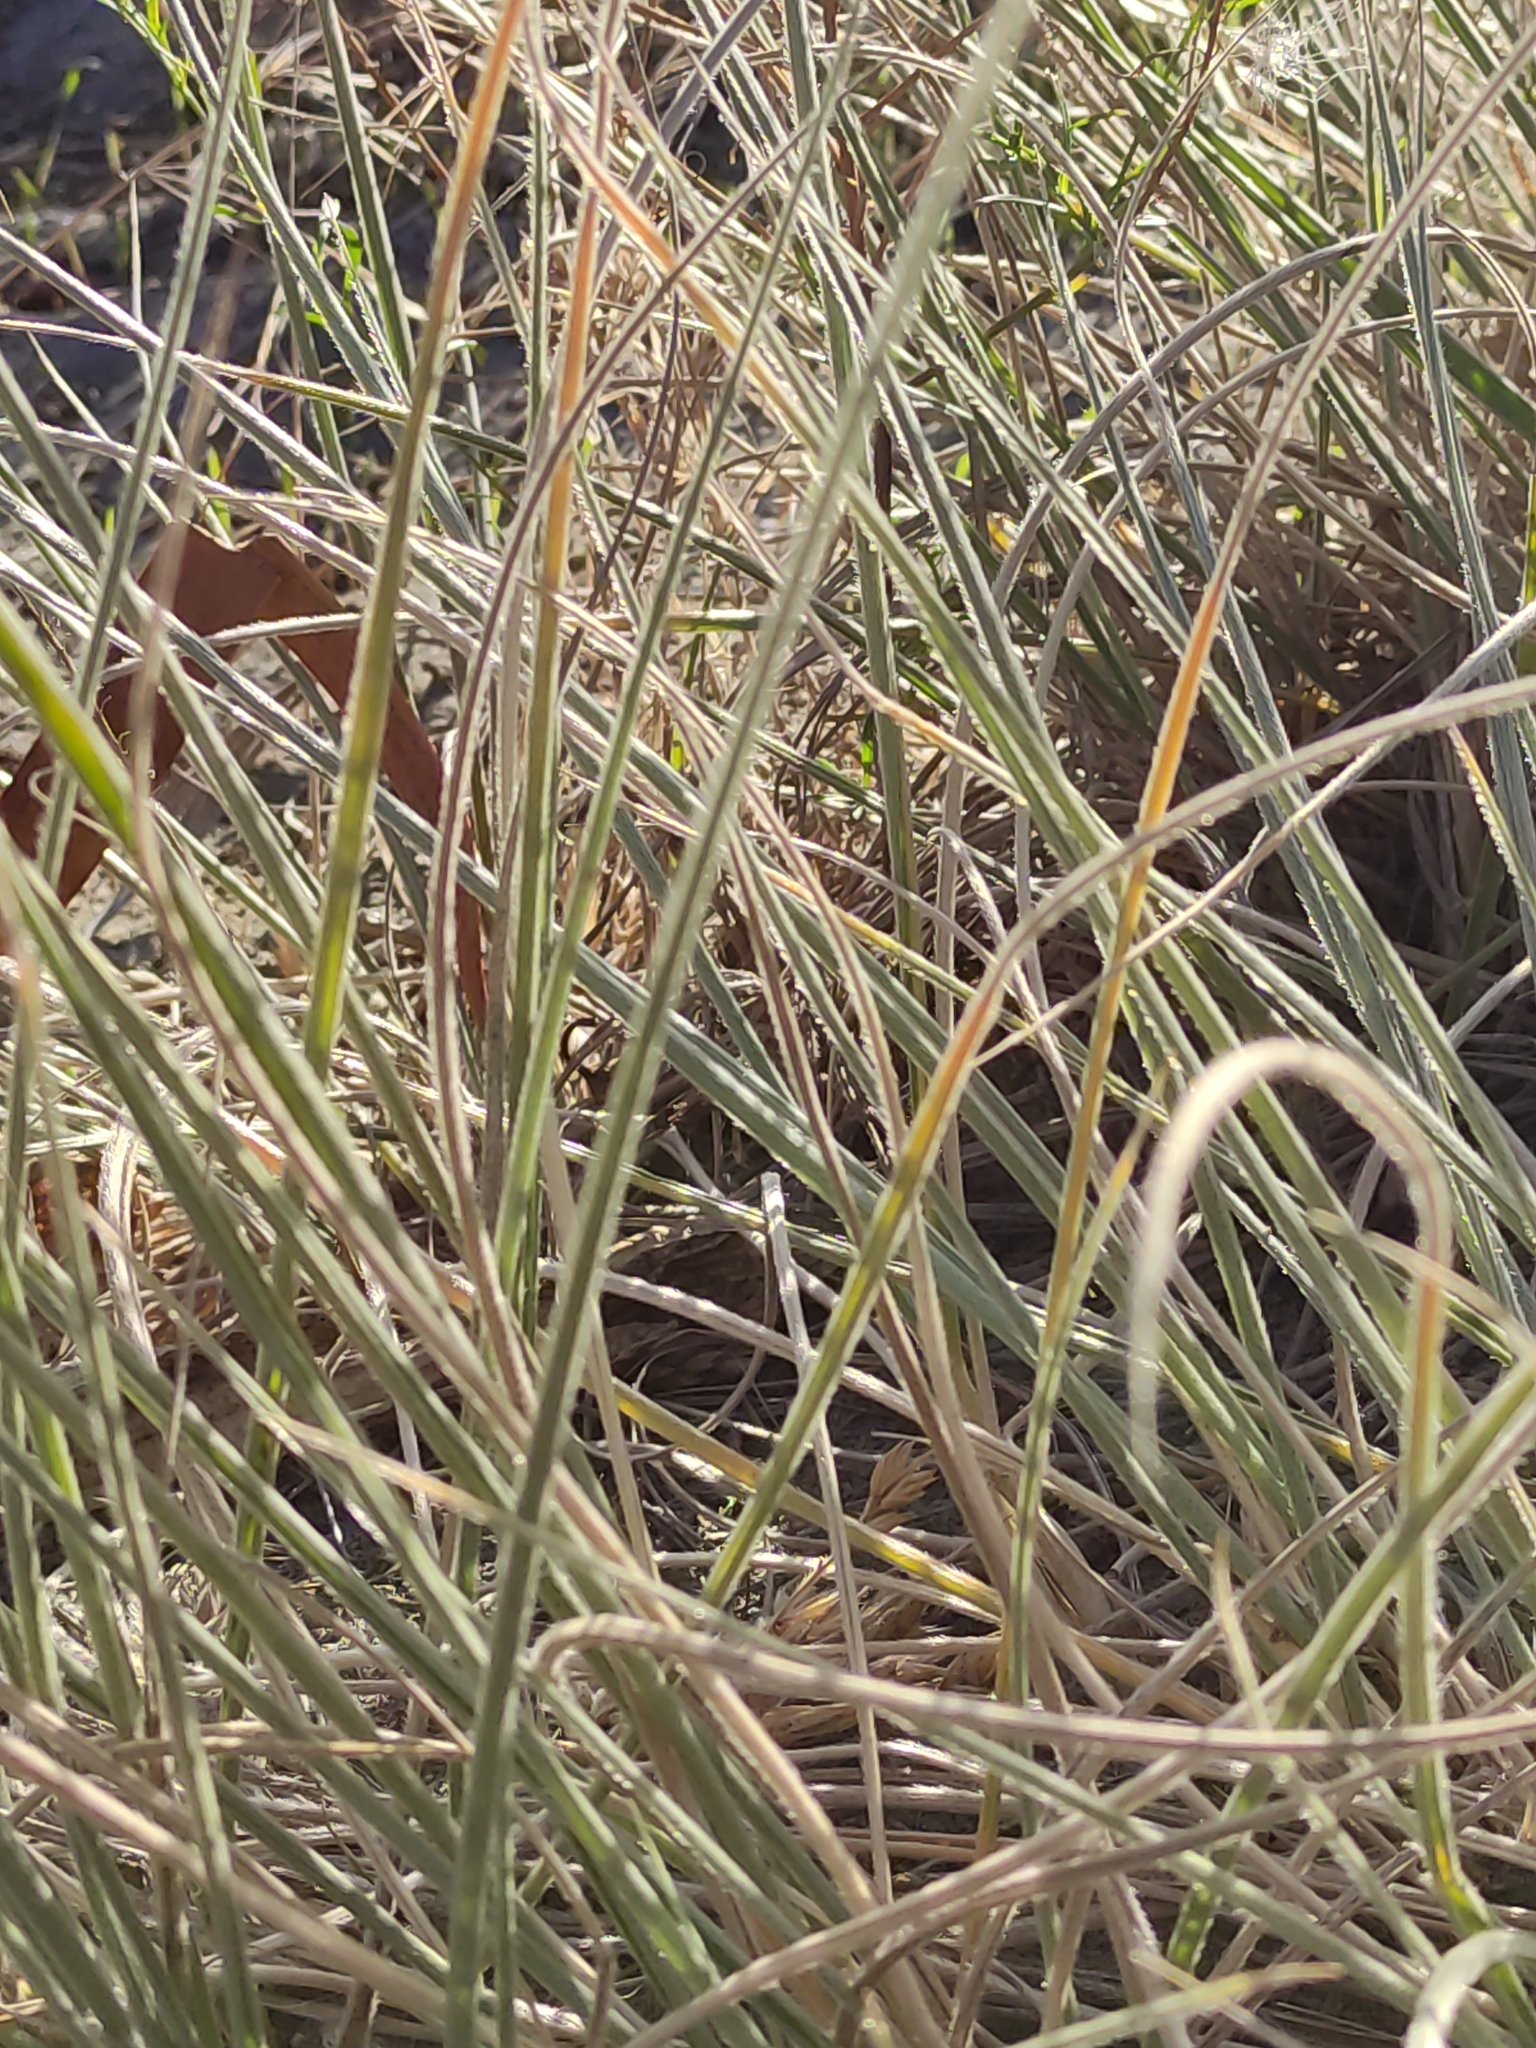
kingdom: Plantae
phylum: Tracheophyta
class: Liliopsida
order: Poales
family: Poaceae
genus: Spinifex
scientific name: Spinifex sericeus
